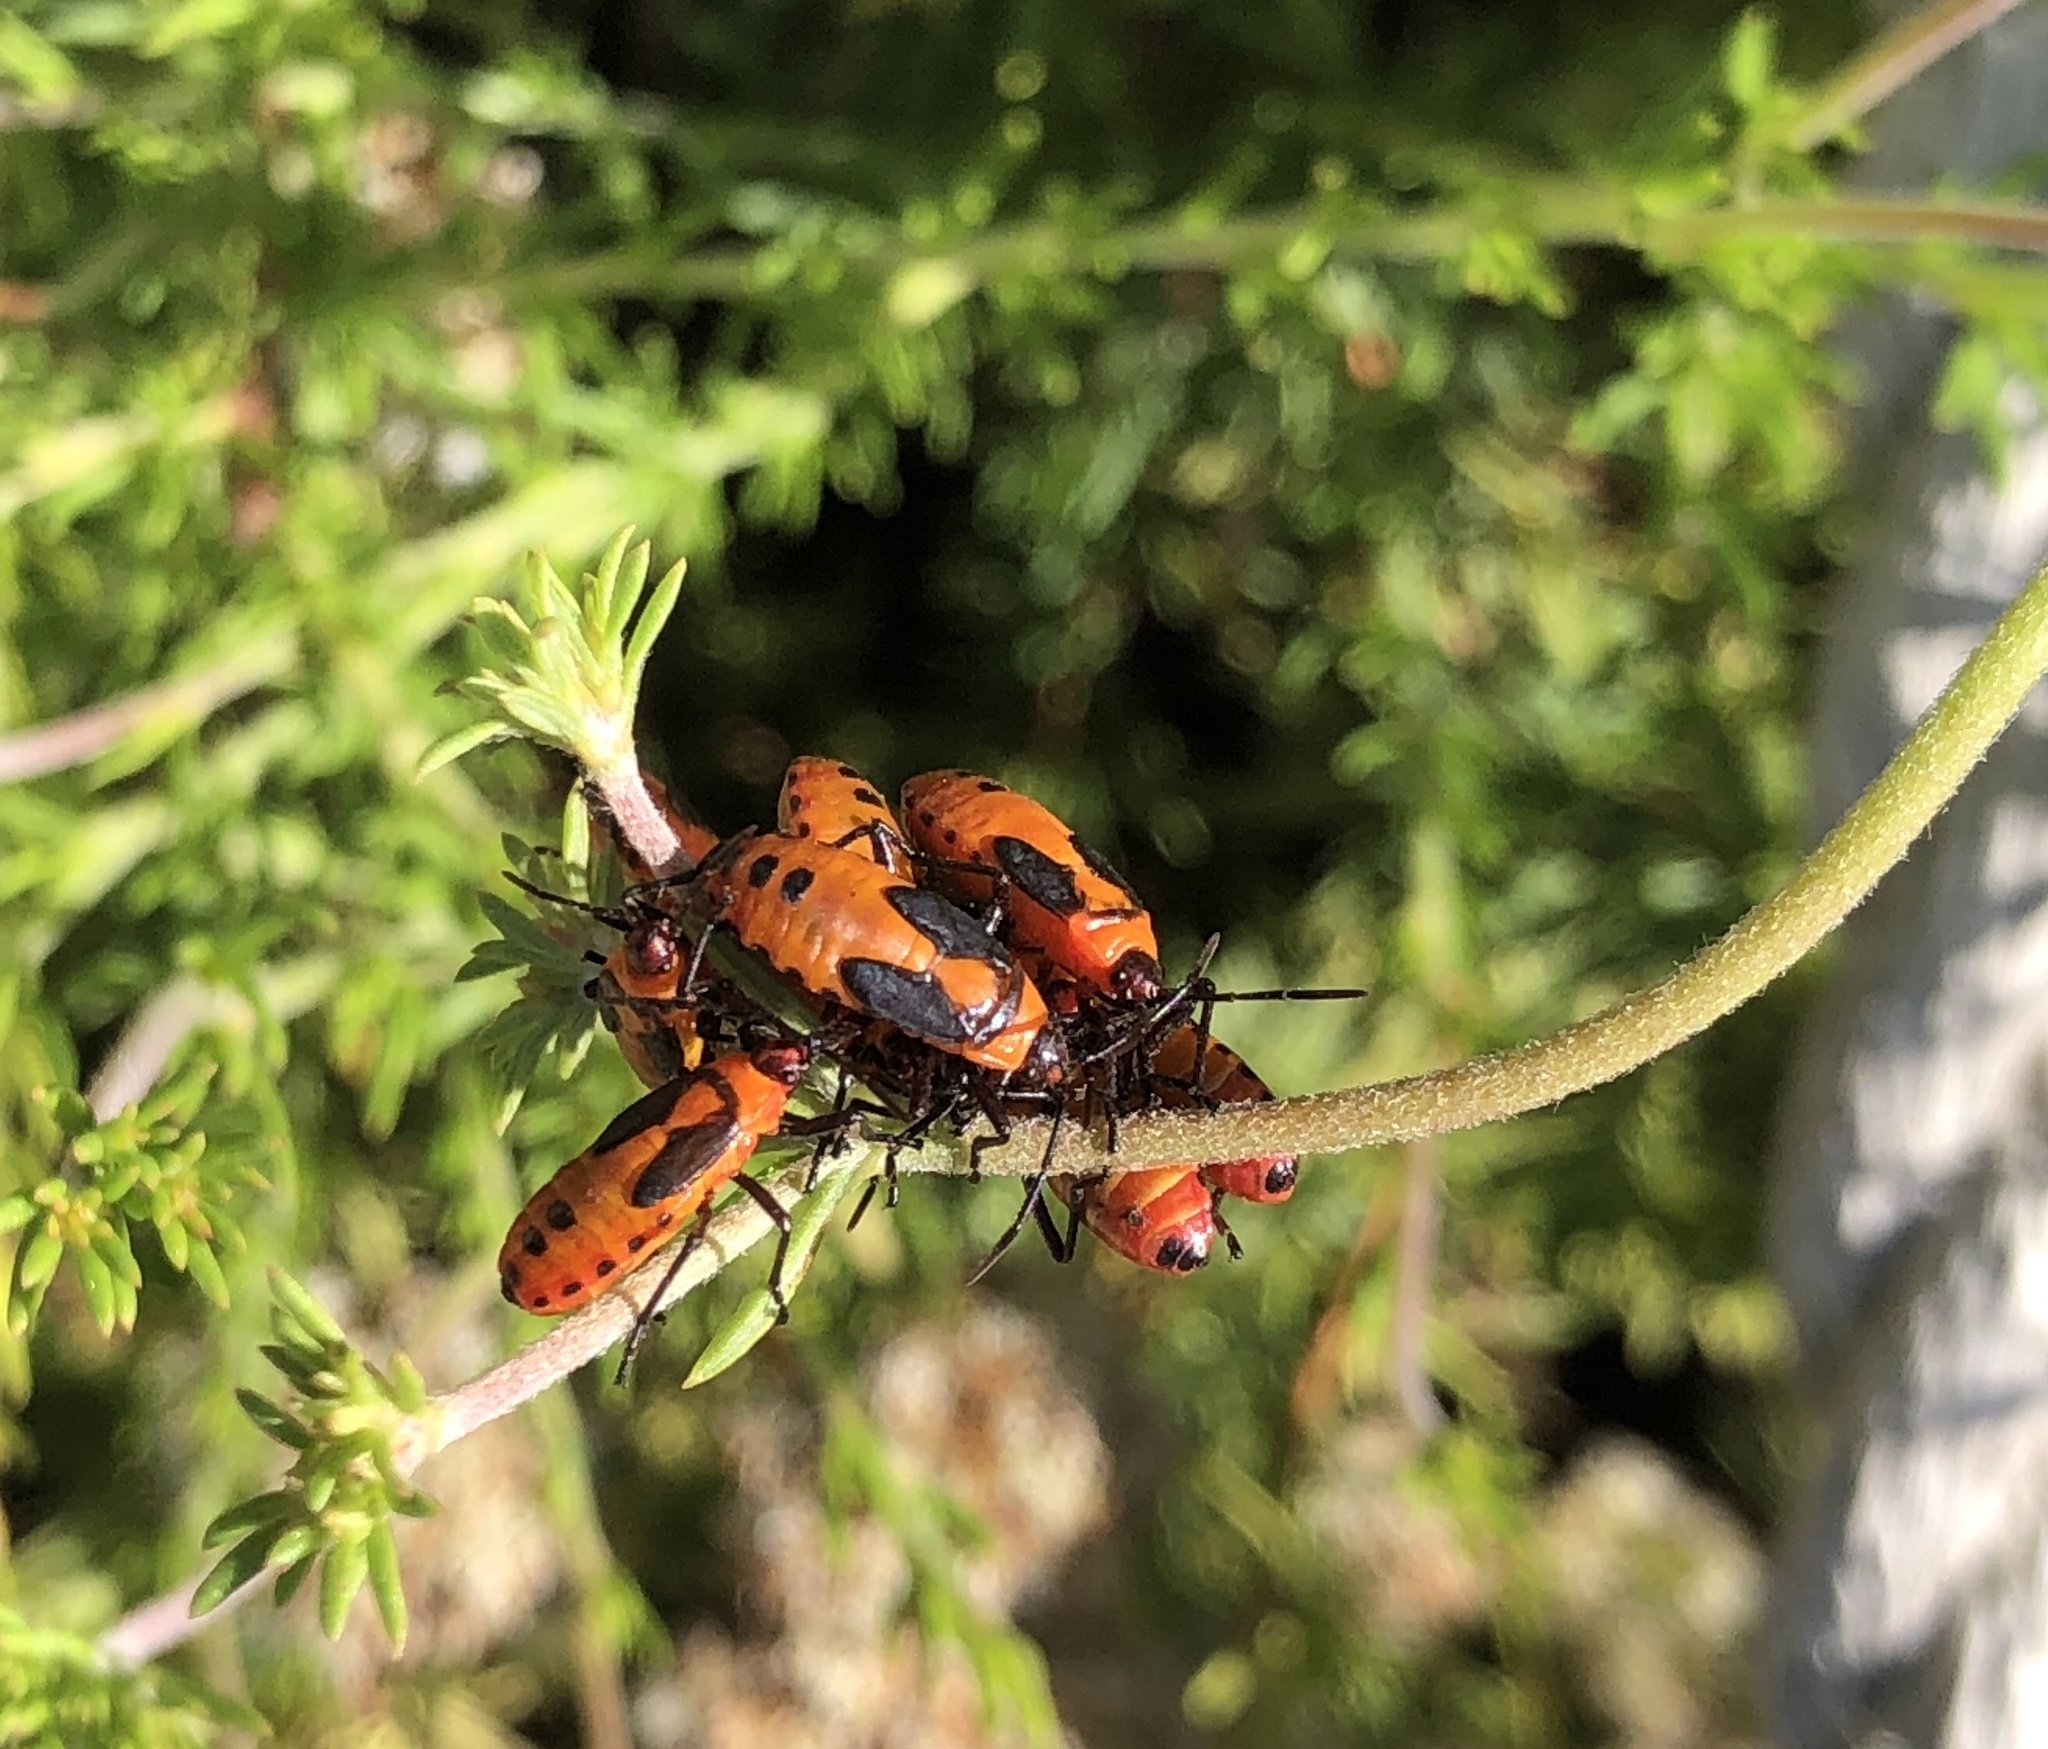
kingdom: Animalia
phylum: Arthropoda
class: Insecta
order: Hemiptera
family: Lygaeidae
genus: Oncopeltus
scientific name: Oncopeltus fasciatus
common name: Large milkweed bug
